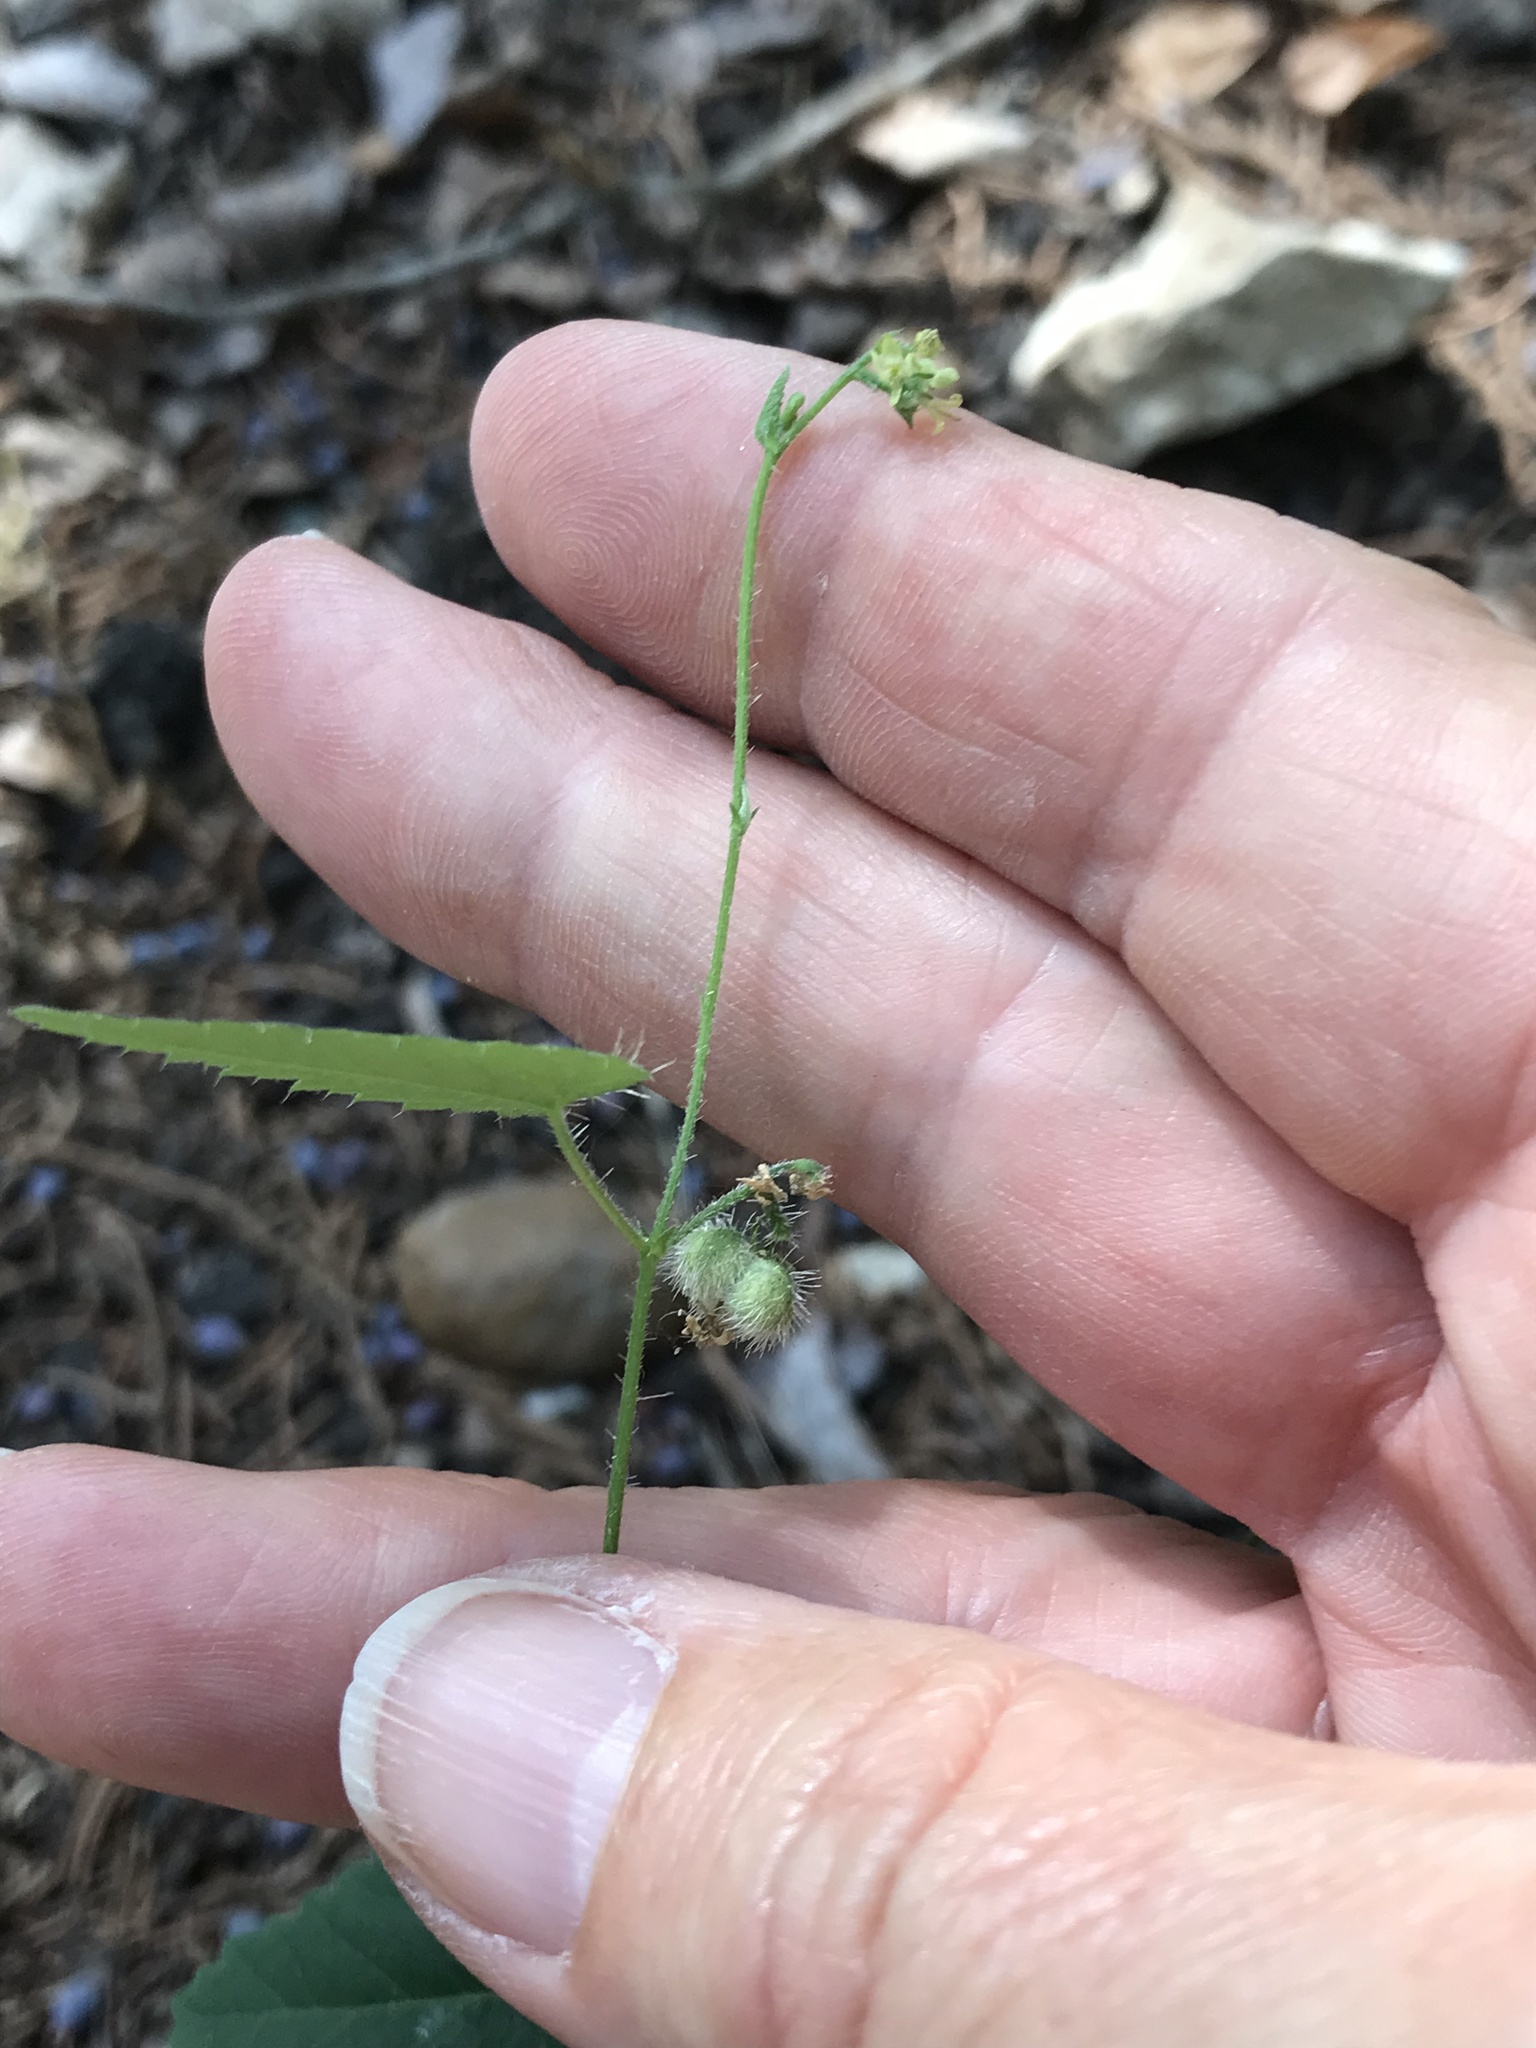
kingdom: Plantae
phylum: Tracheophyta
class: Magnoliopsida
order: Malpighiales
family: Euphorbiaceae
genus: Tragia
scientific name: Tragia brevispica
